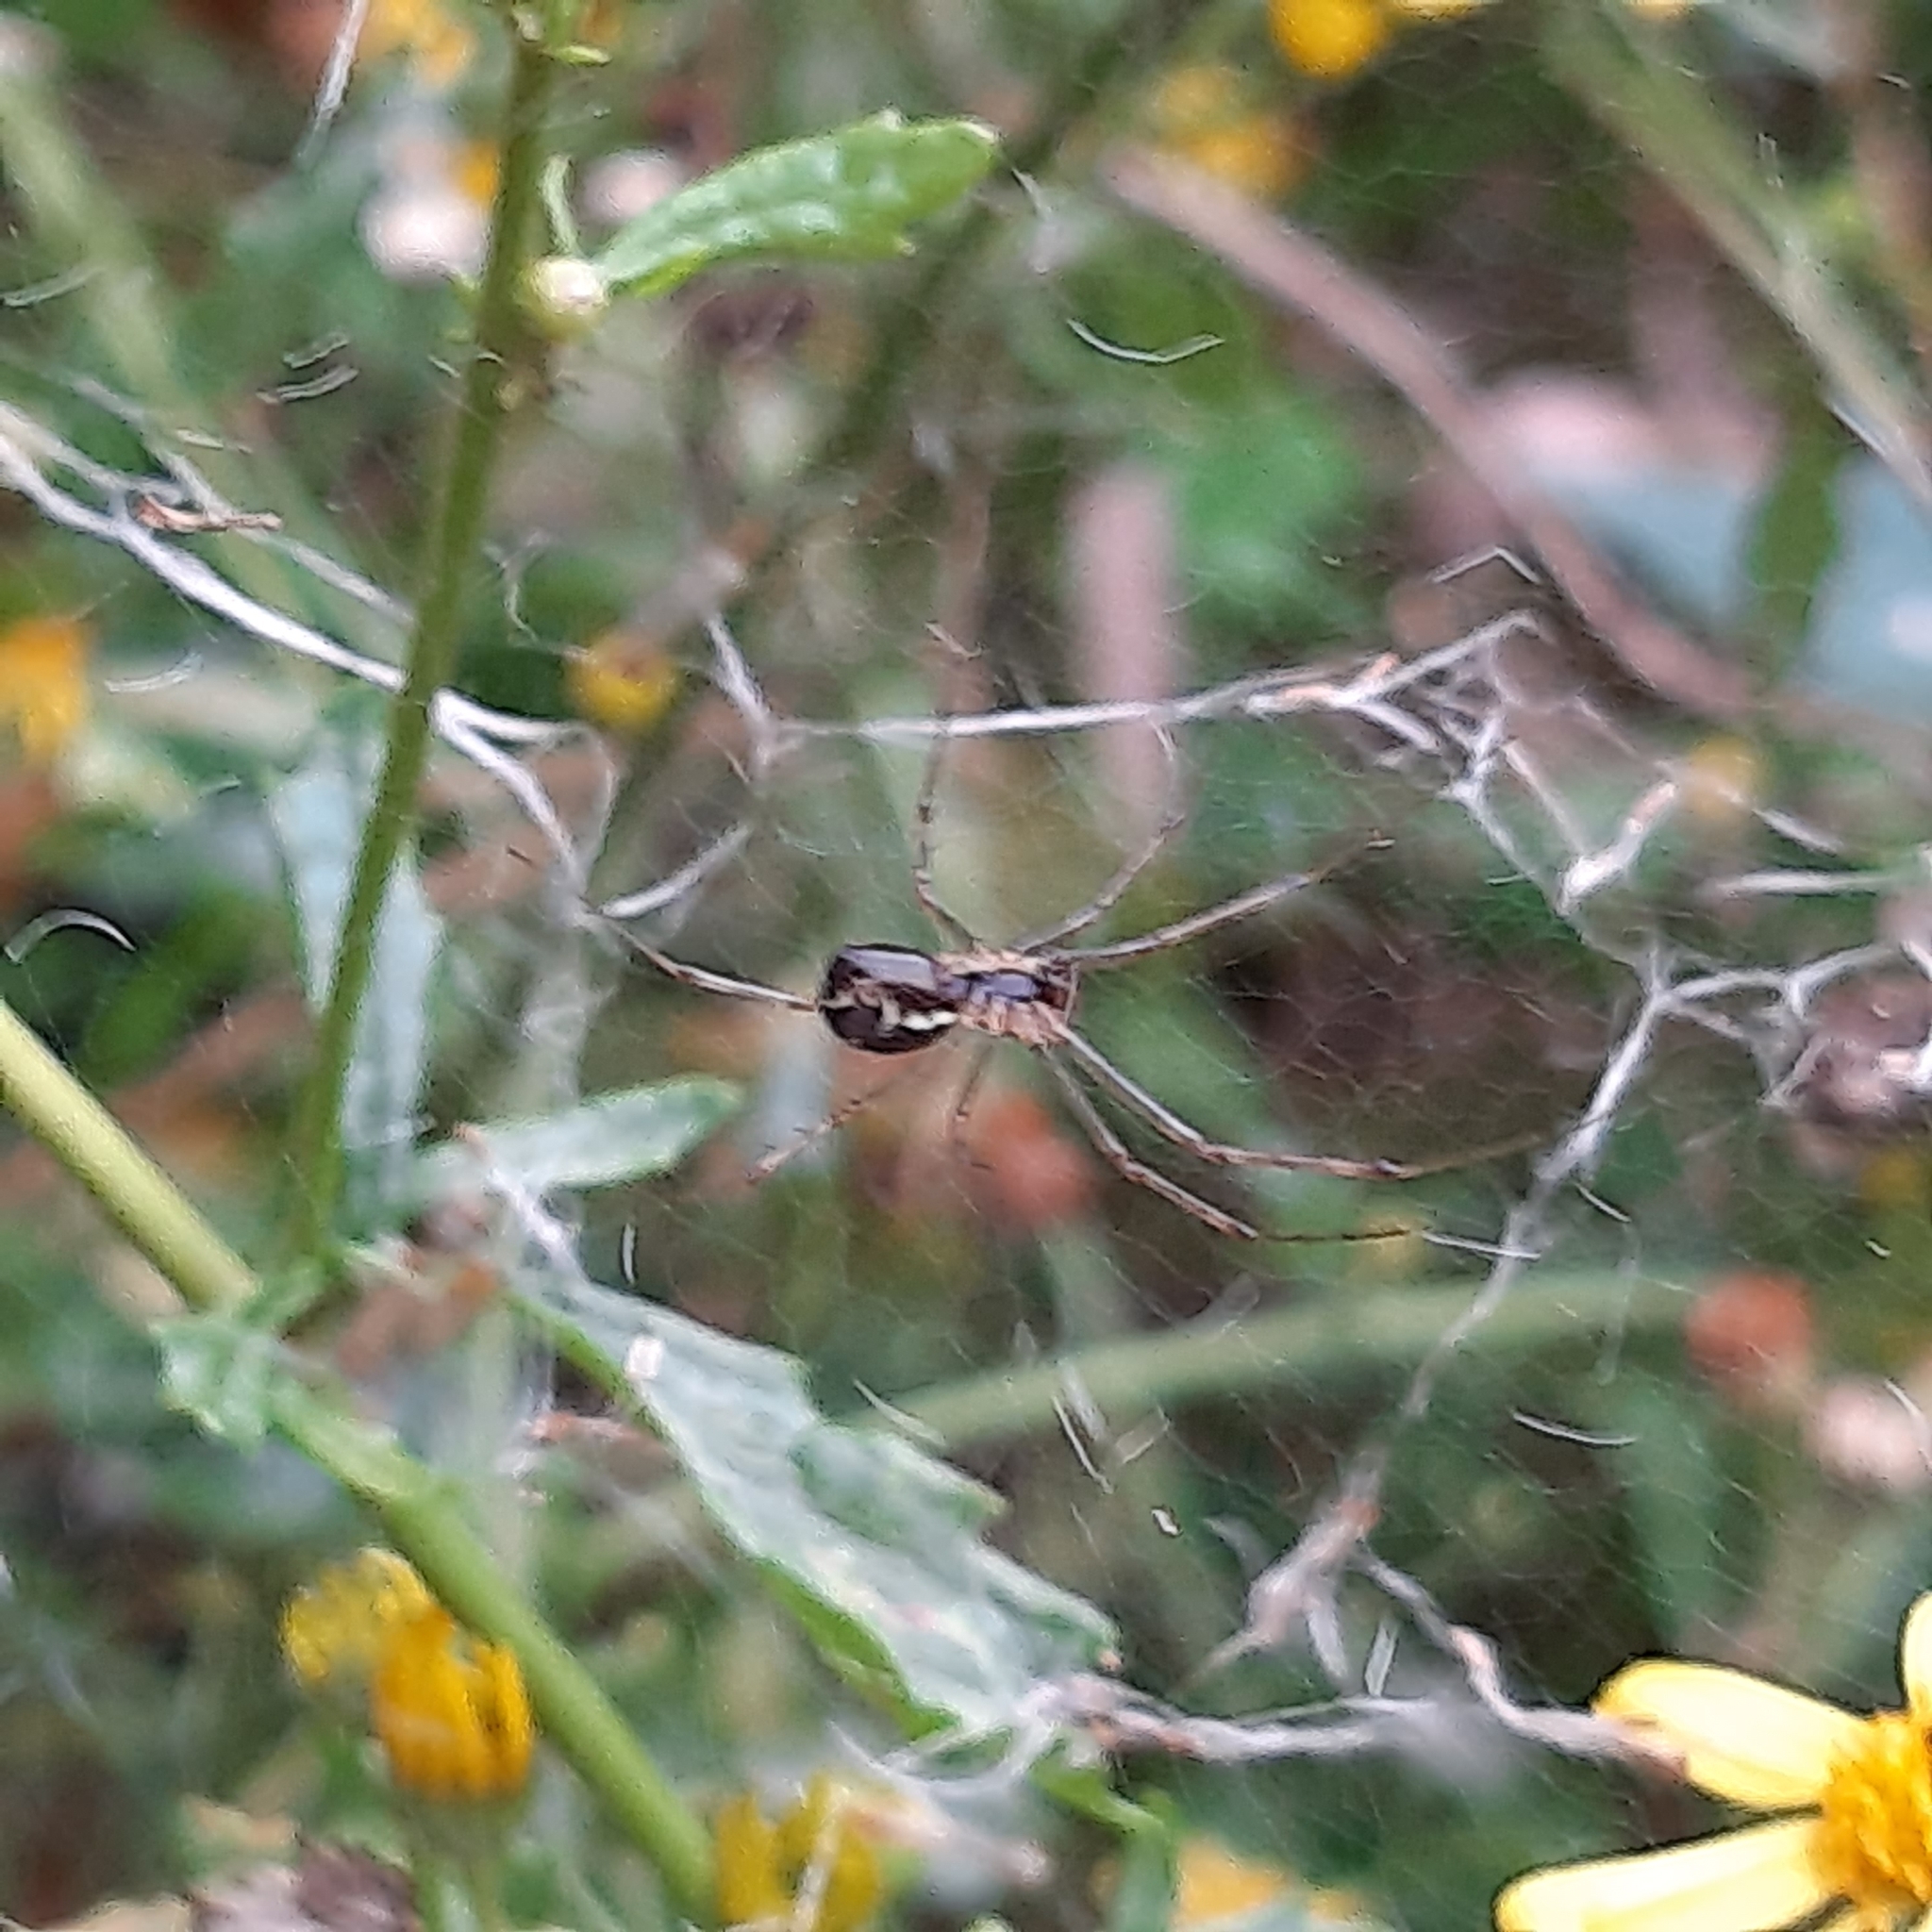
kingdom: Animalia
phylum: Arthropoda
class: Arachnida
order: Araneae
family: Linyphiidae
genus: Linyphia
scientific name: Linyphia triangularis
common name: Money spider
